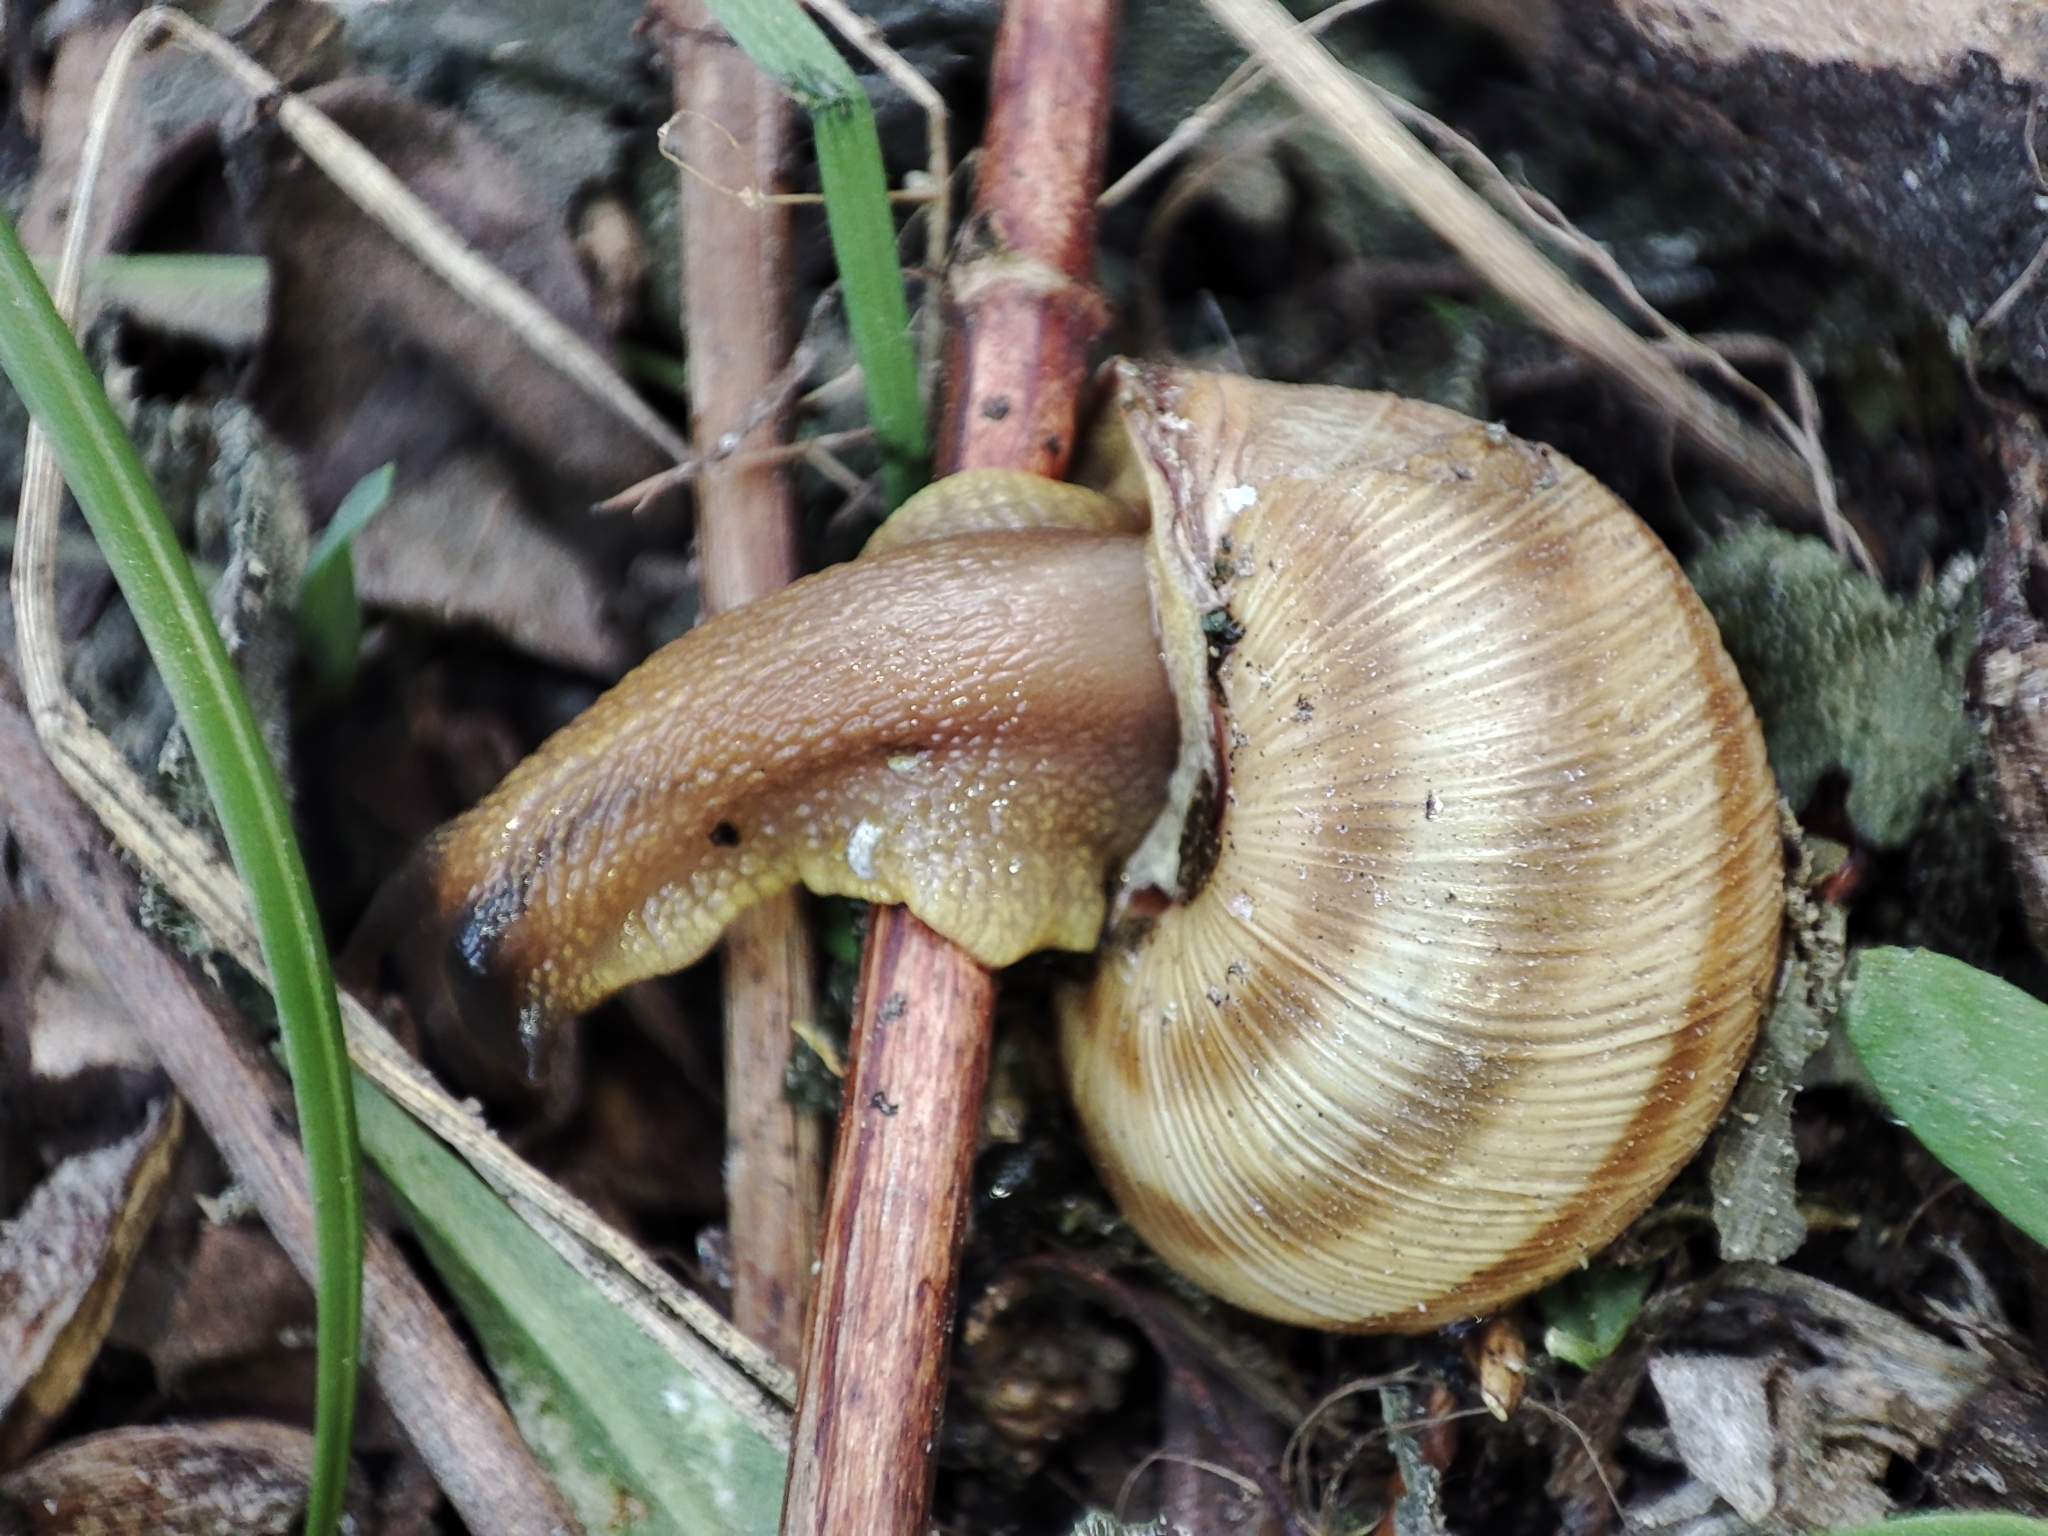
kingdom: Animalia
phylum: Mollusca
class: Gastropoda
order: Stylommatophora
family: Helicidae
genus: Caucasotachea
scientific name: Caucasotachea vindobonensis
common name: European helicid land snail
